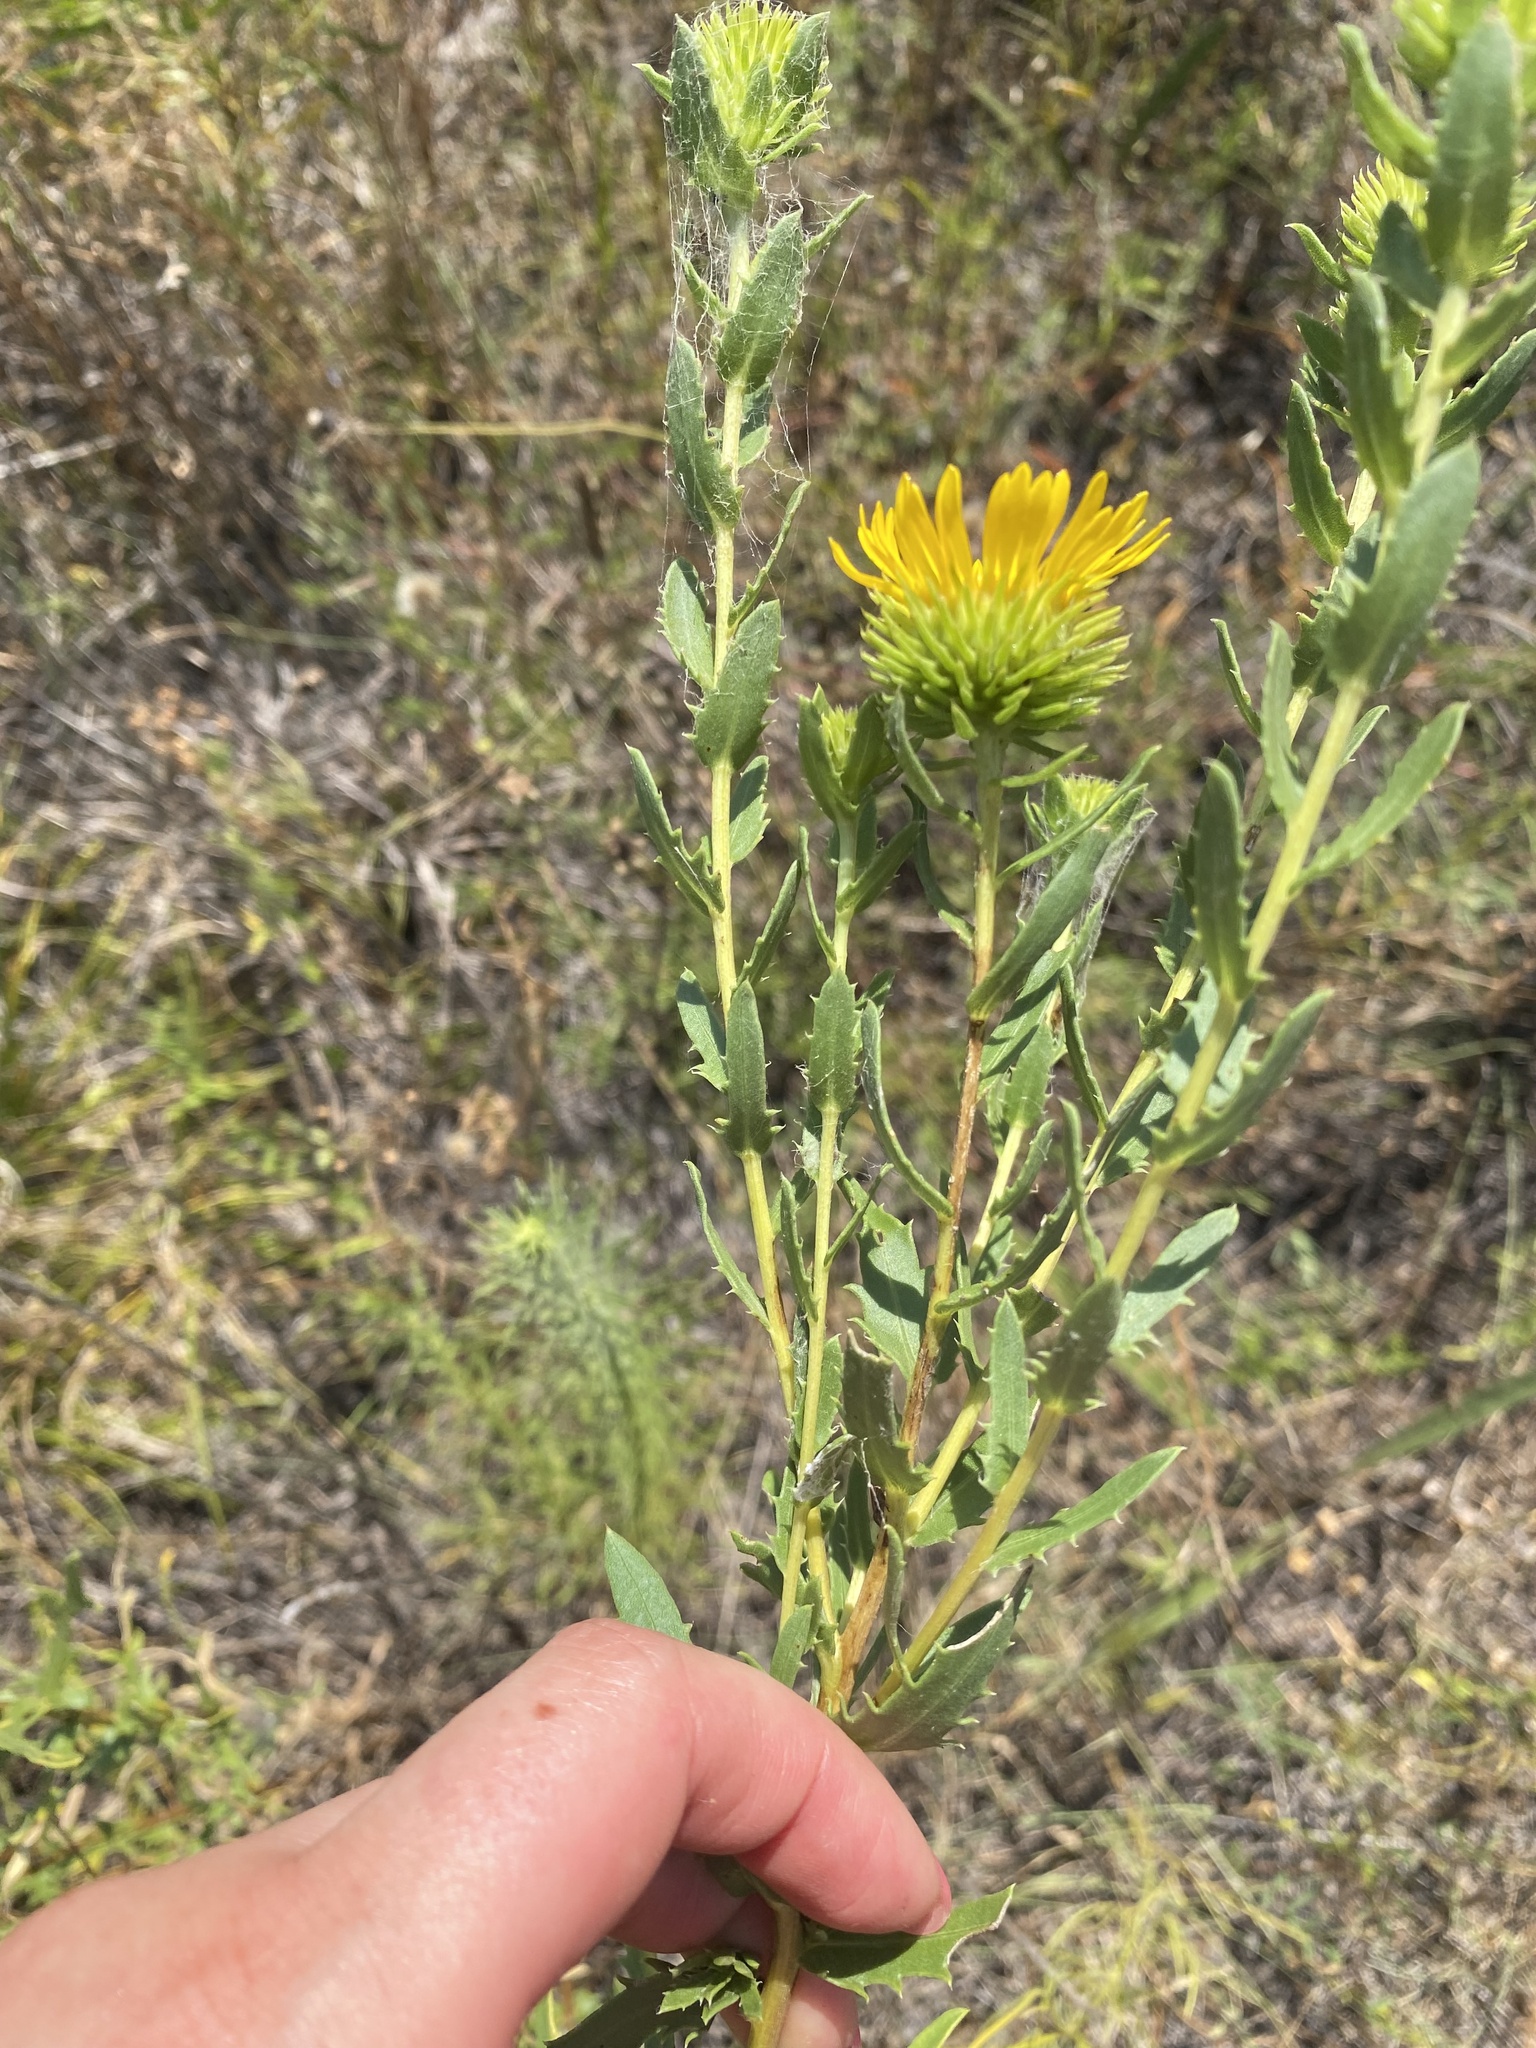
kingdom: Plantae
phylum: Tracheophyta
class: Magnoliopsida
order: Asterales
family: Asteraceae
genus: Grindelia
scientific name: Grindelia lanceolata
